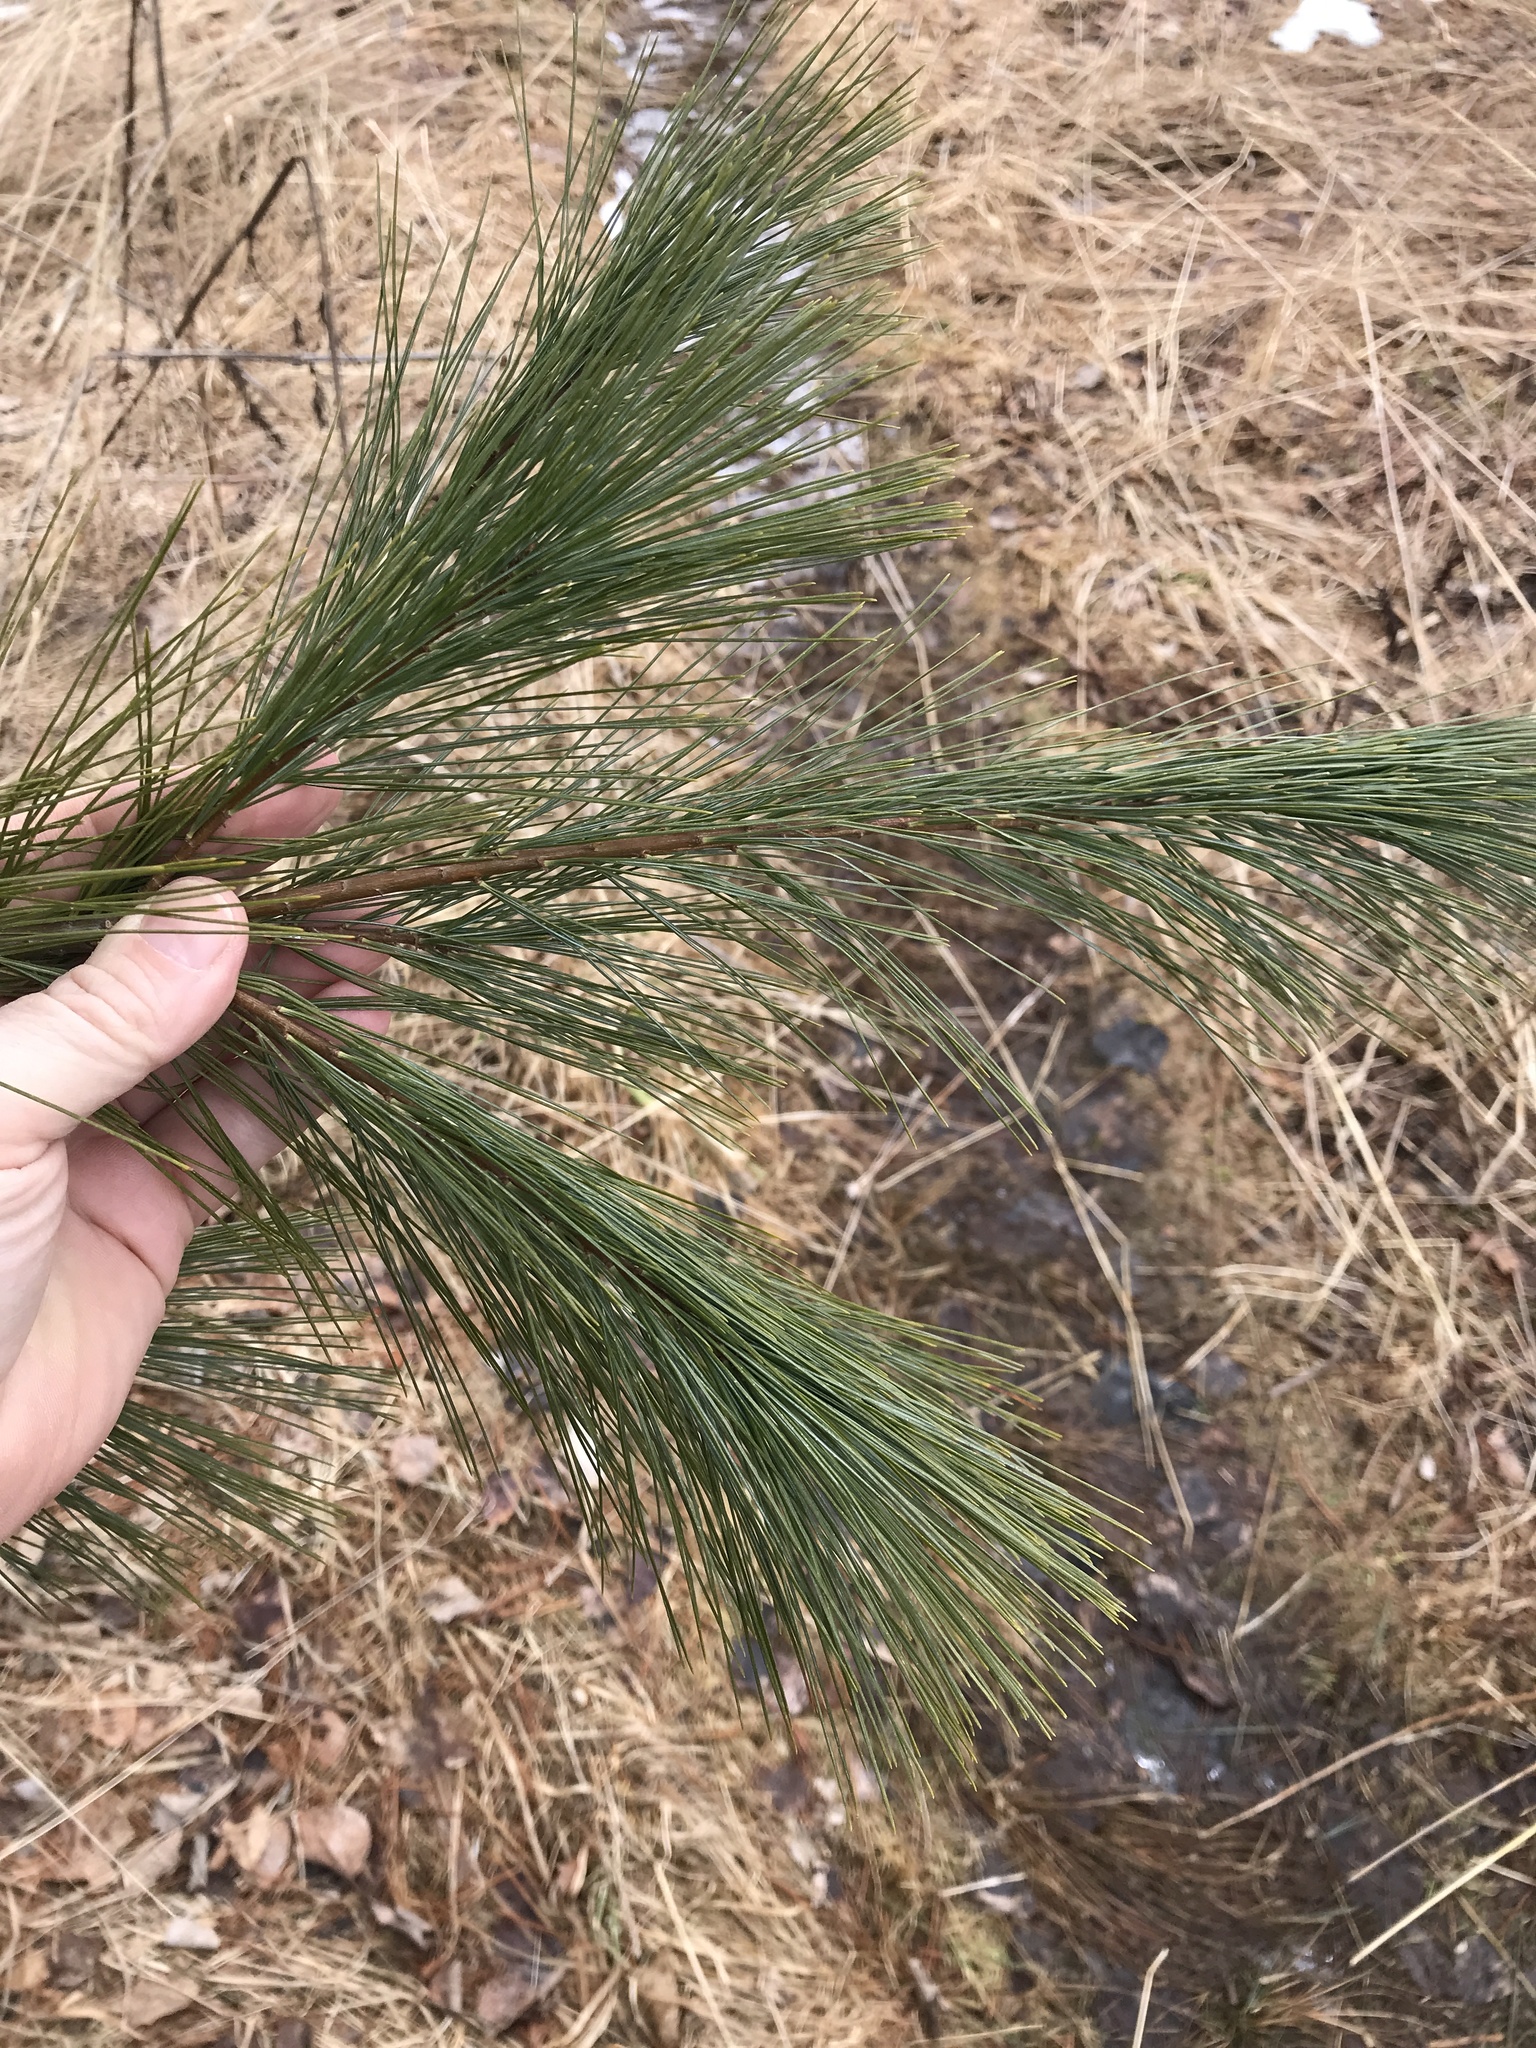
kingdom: Plantae
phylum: Tracheophyta
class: Pinopsida
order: Pinales
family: Pinaceae
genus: Pinus
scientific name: Pinus strobus
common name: Weymouth pine
